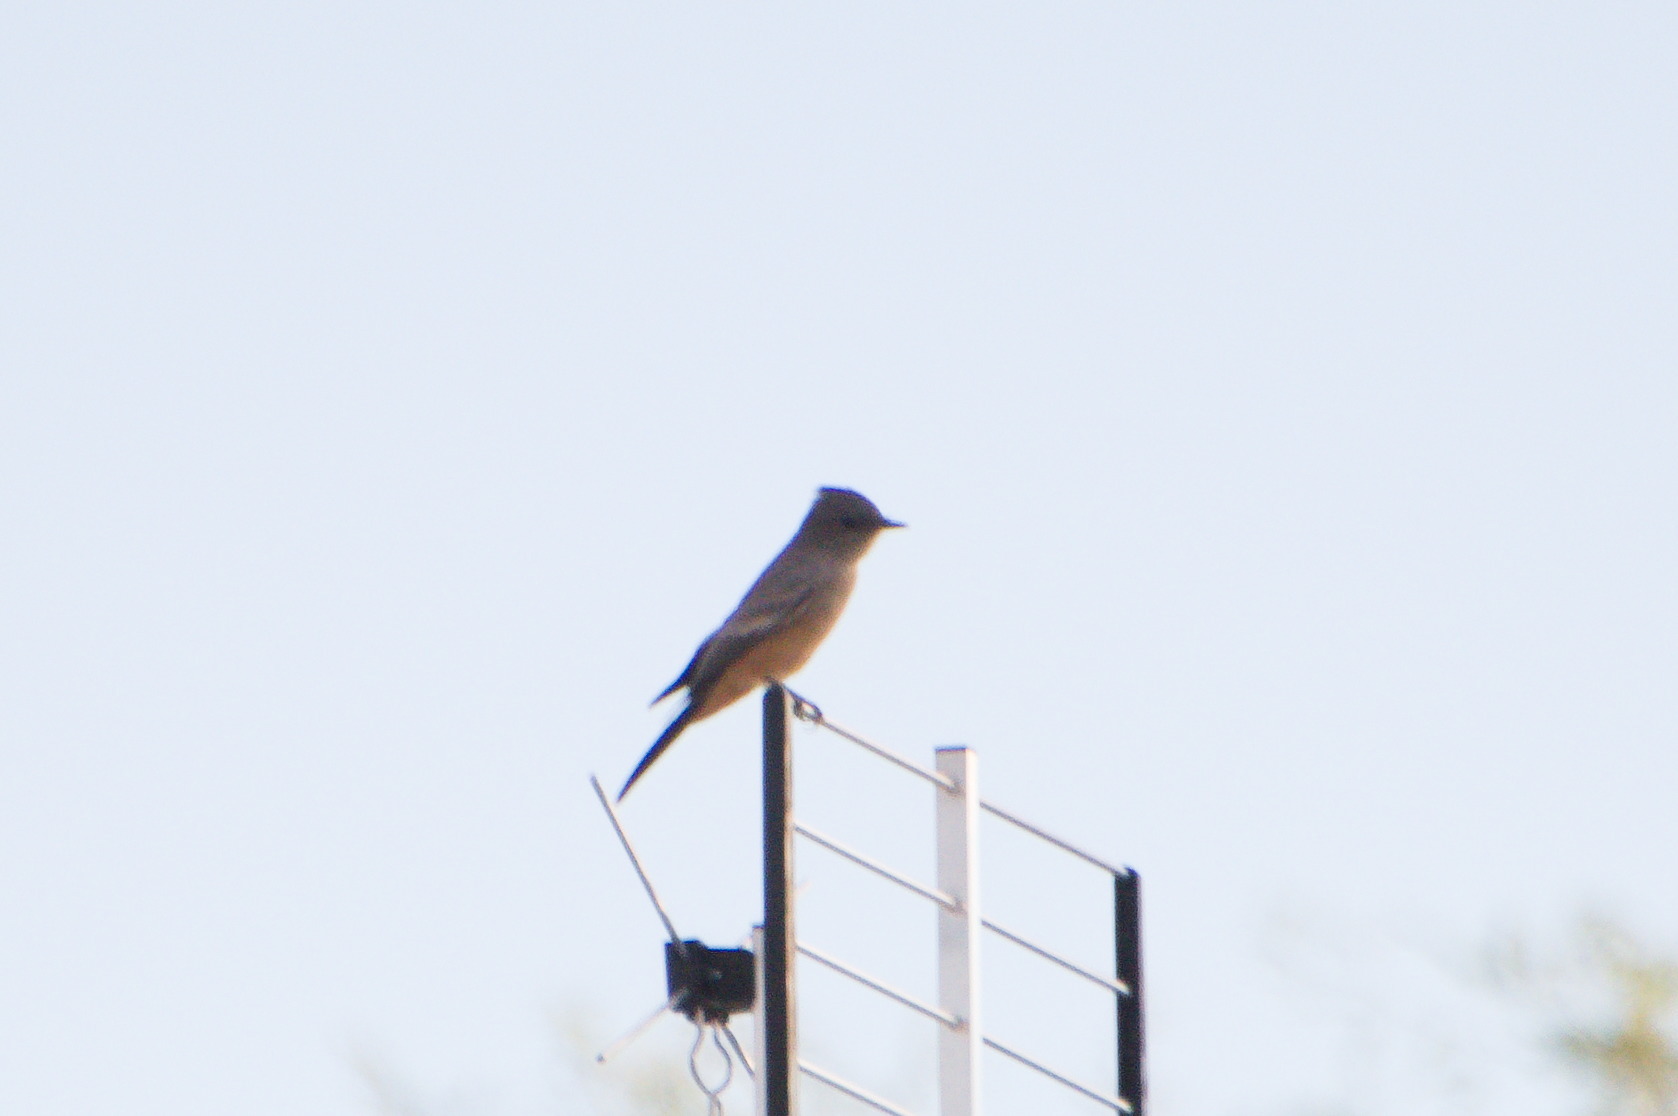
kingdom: Animalia
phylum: Chordata
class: Aves
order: Passeriformes
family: Tyrannidae
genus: Sayornis
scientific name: Sayornis saya
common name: Say's phoebe
